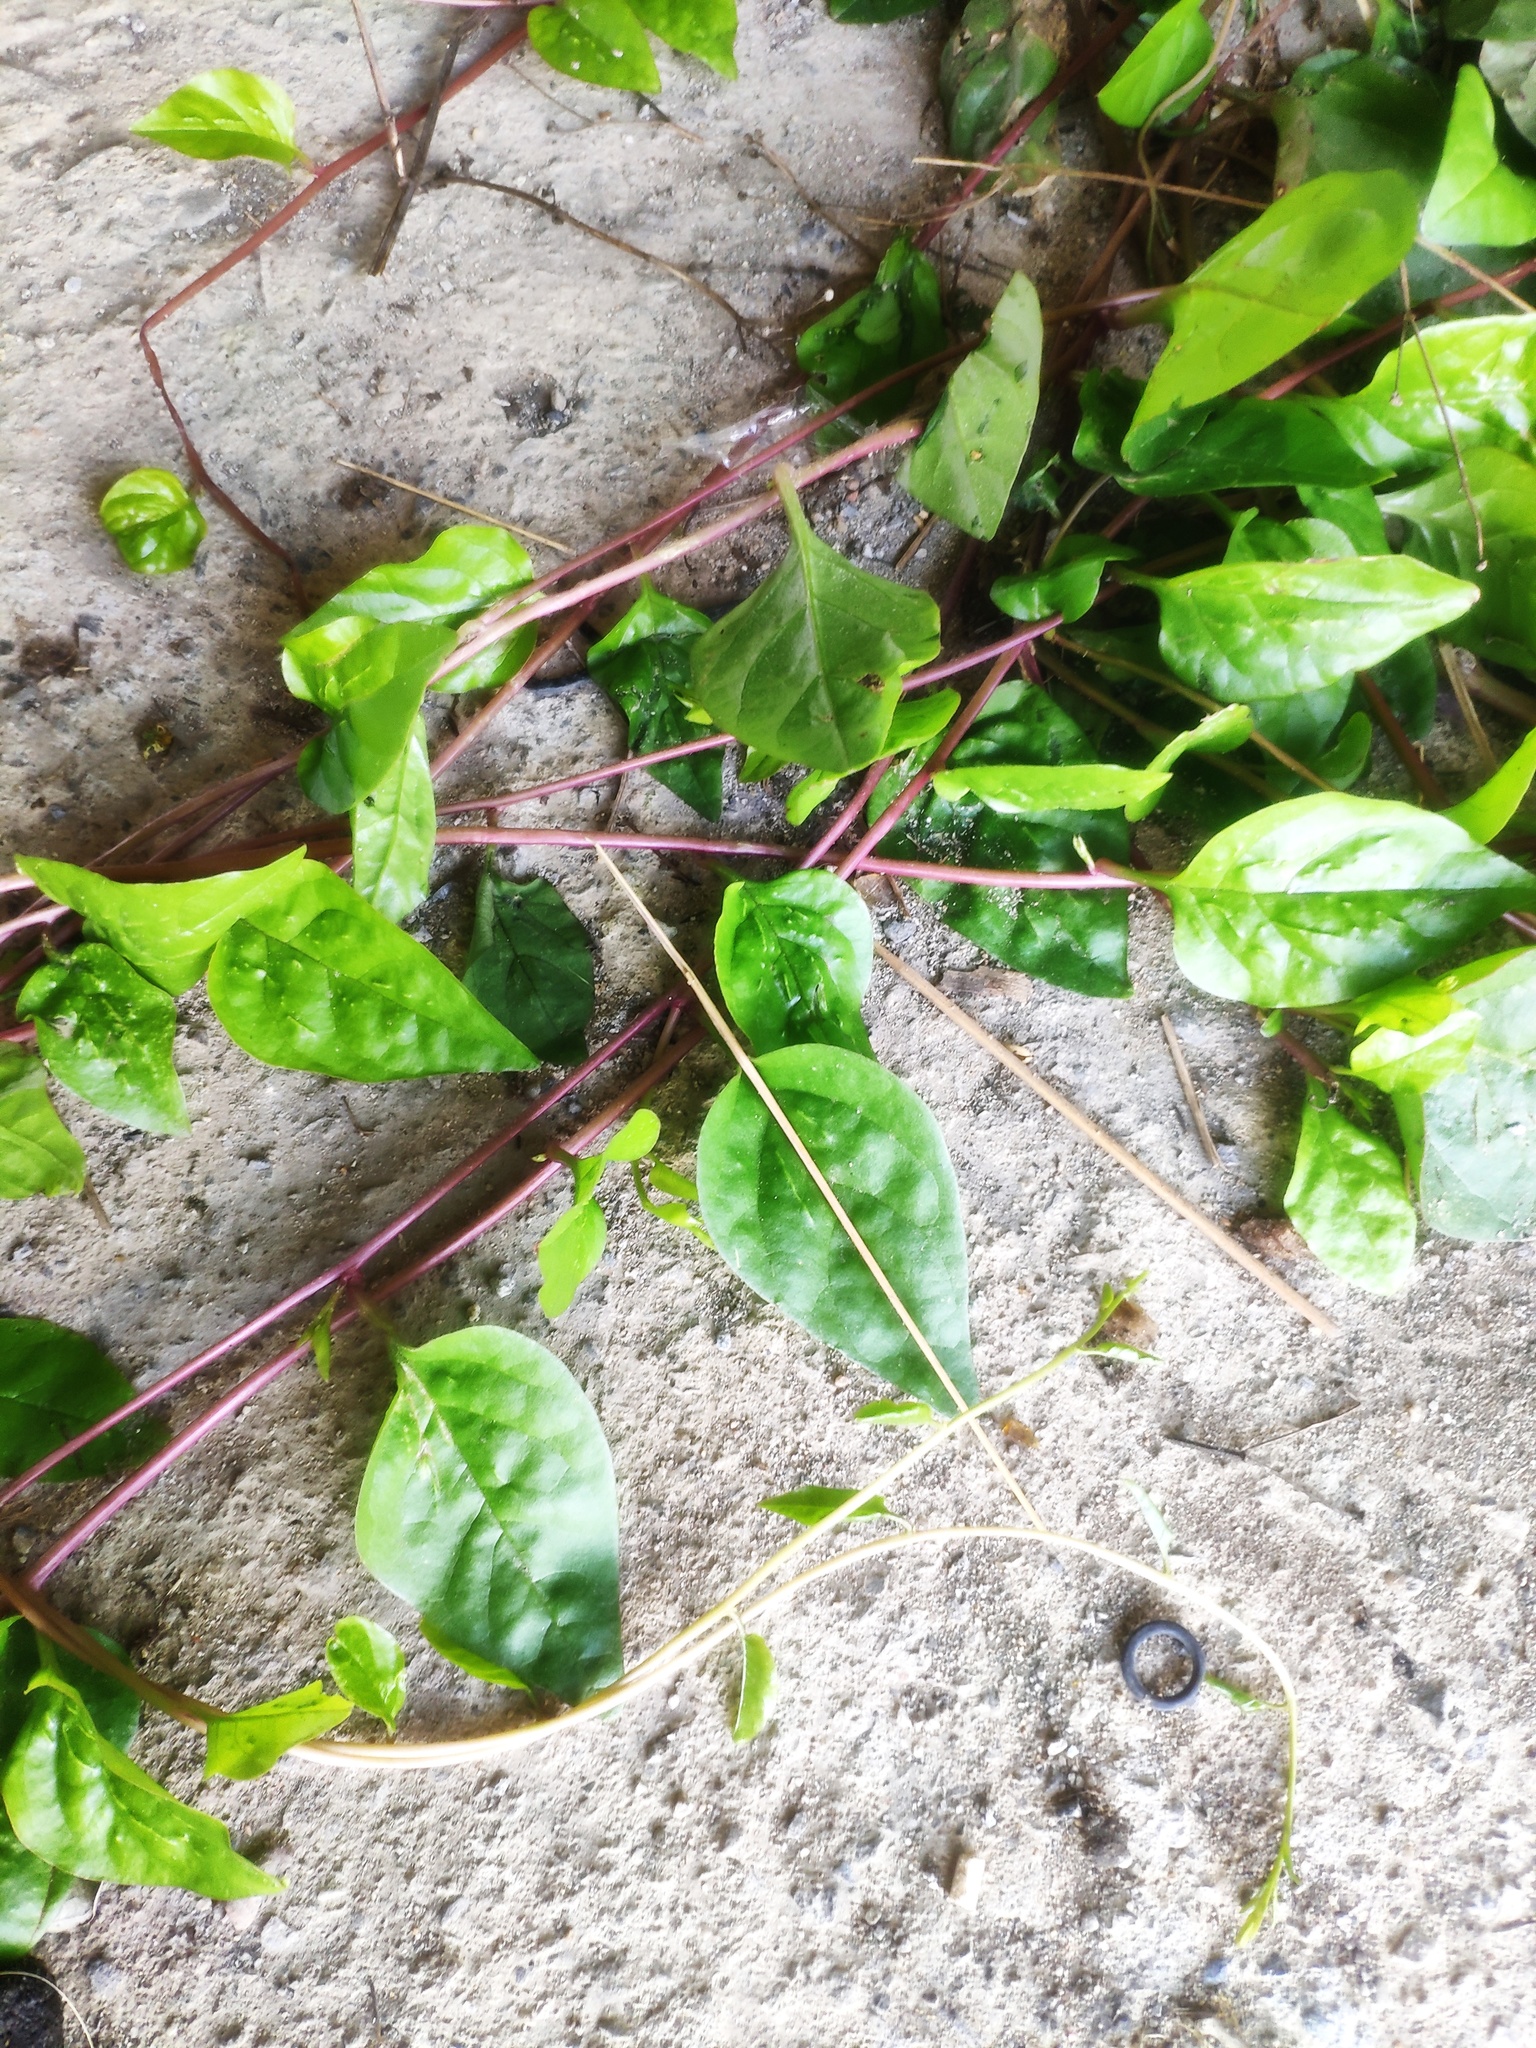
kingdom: Plantae
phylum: Tracheophyta
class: Magnoliopsida
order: Caryophyllales
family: Basellaceae
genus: Basella
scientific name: Basella alba
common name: Indian spinach
